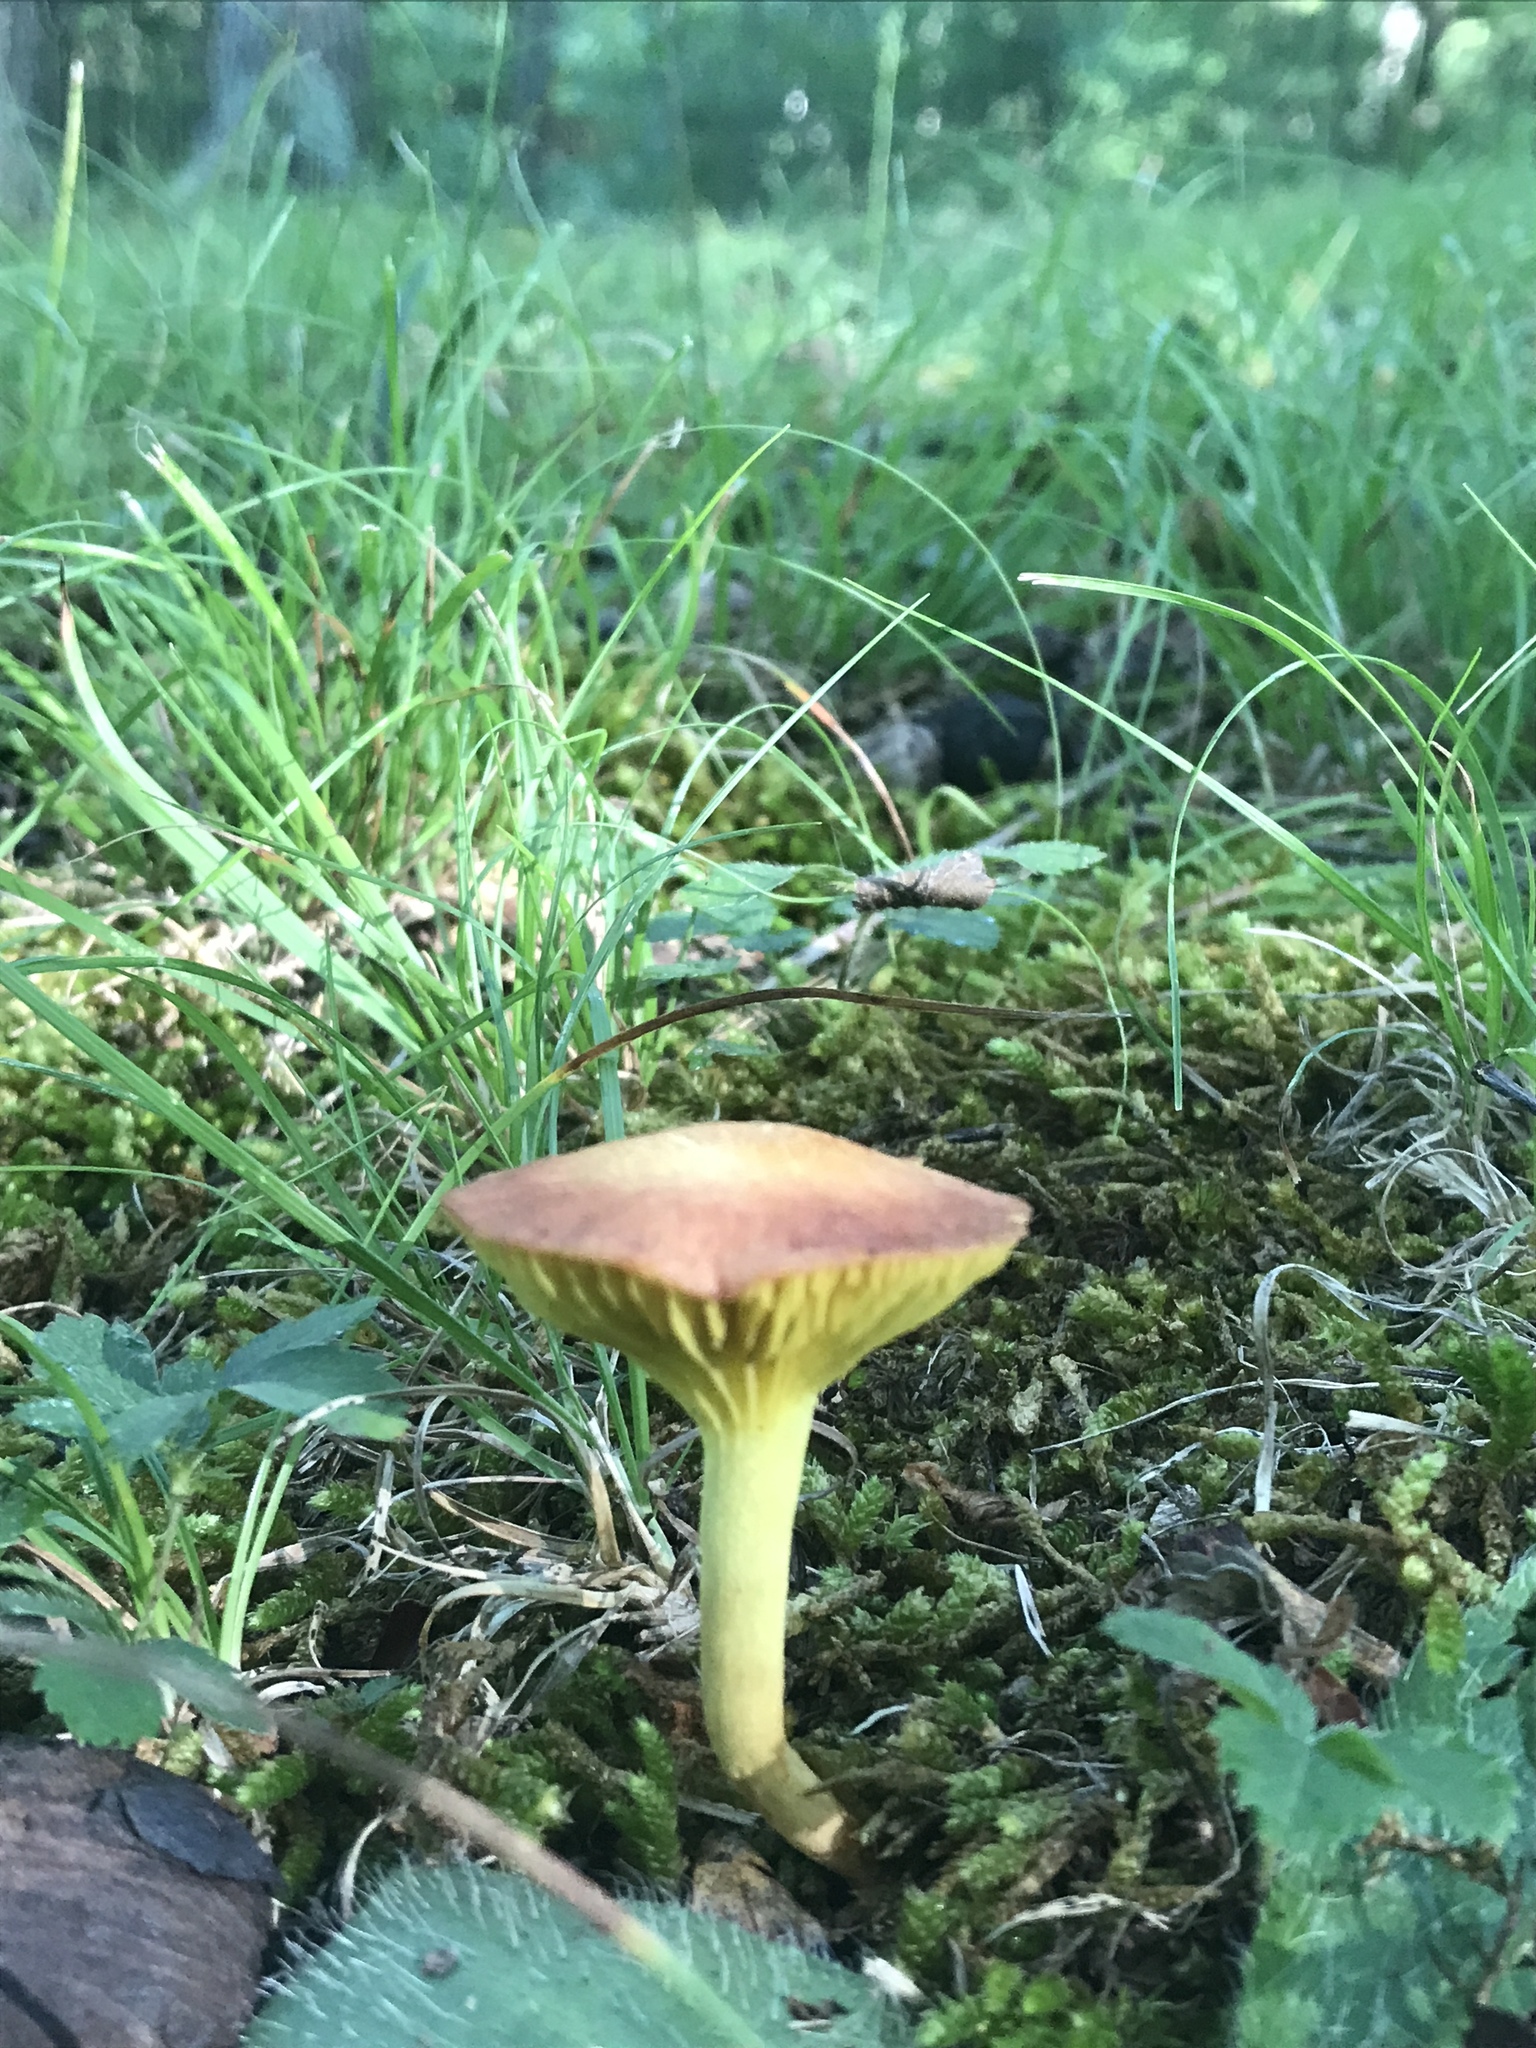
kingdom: Fungi
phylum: Basidiomycota
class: Agaricomycetes
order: Boletales
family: Boletaceae
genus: Phylloporus
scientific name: Phylloporus leucomycelinus
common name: Gilled bolete
